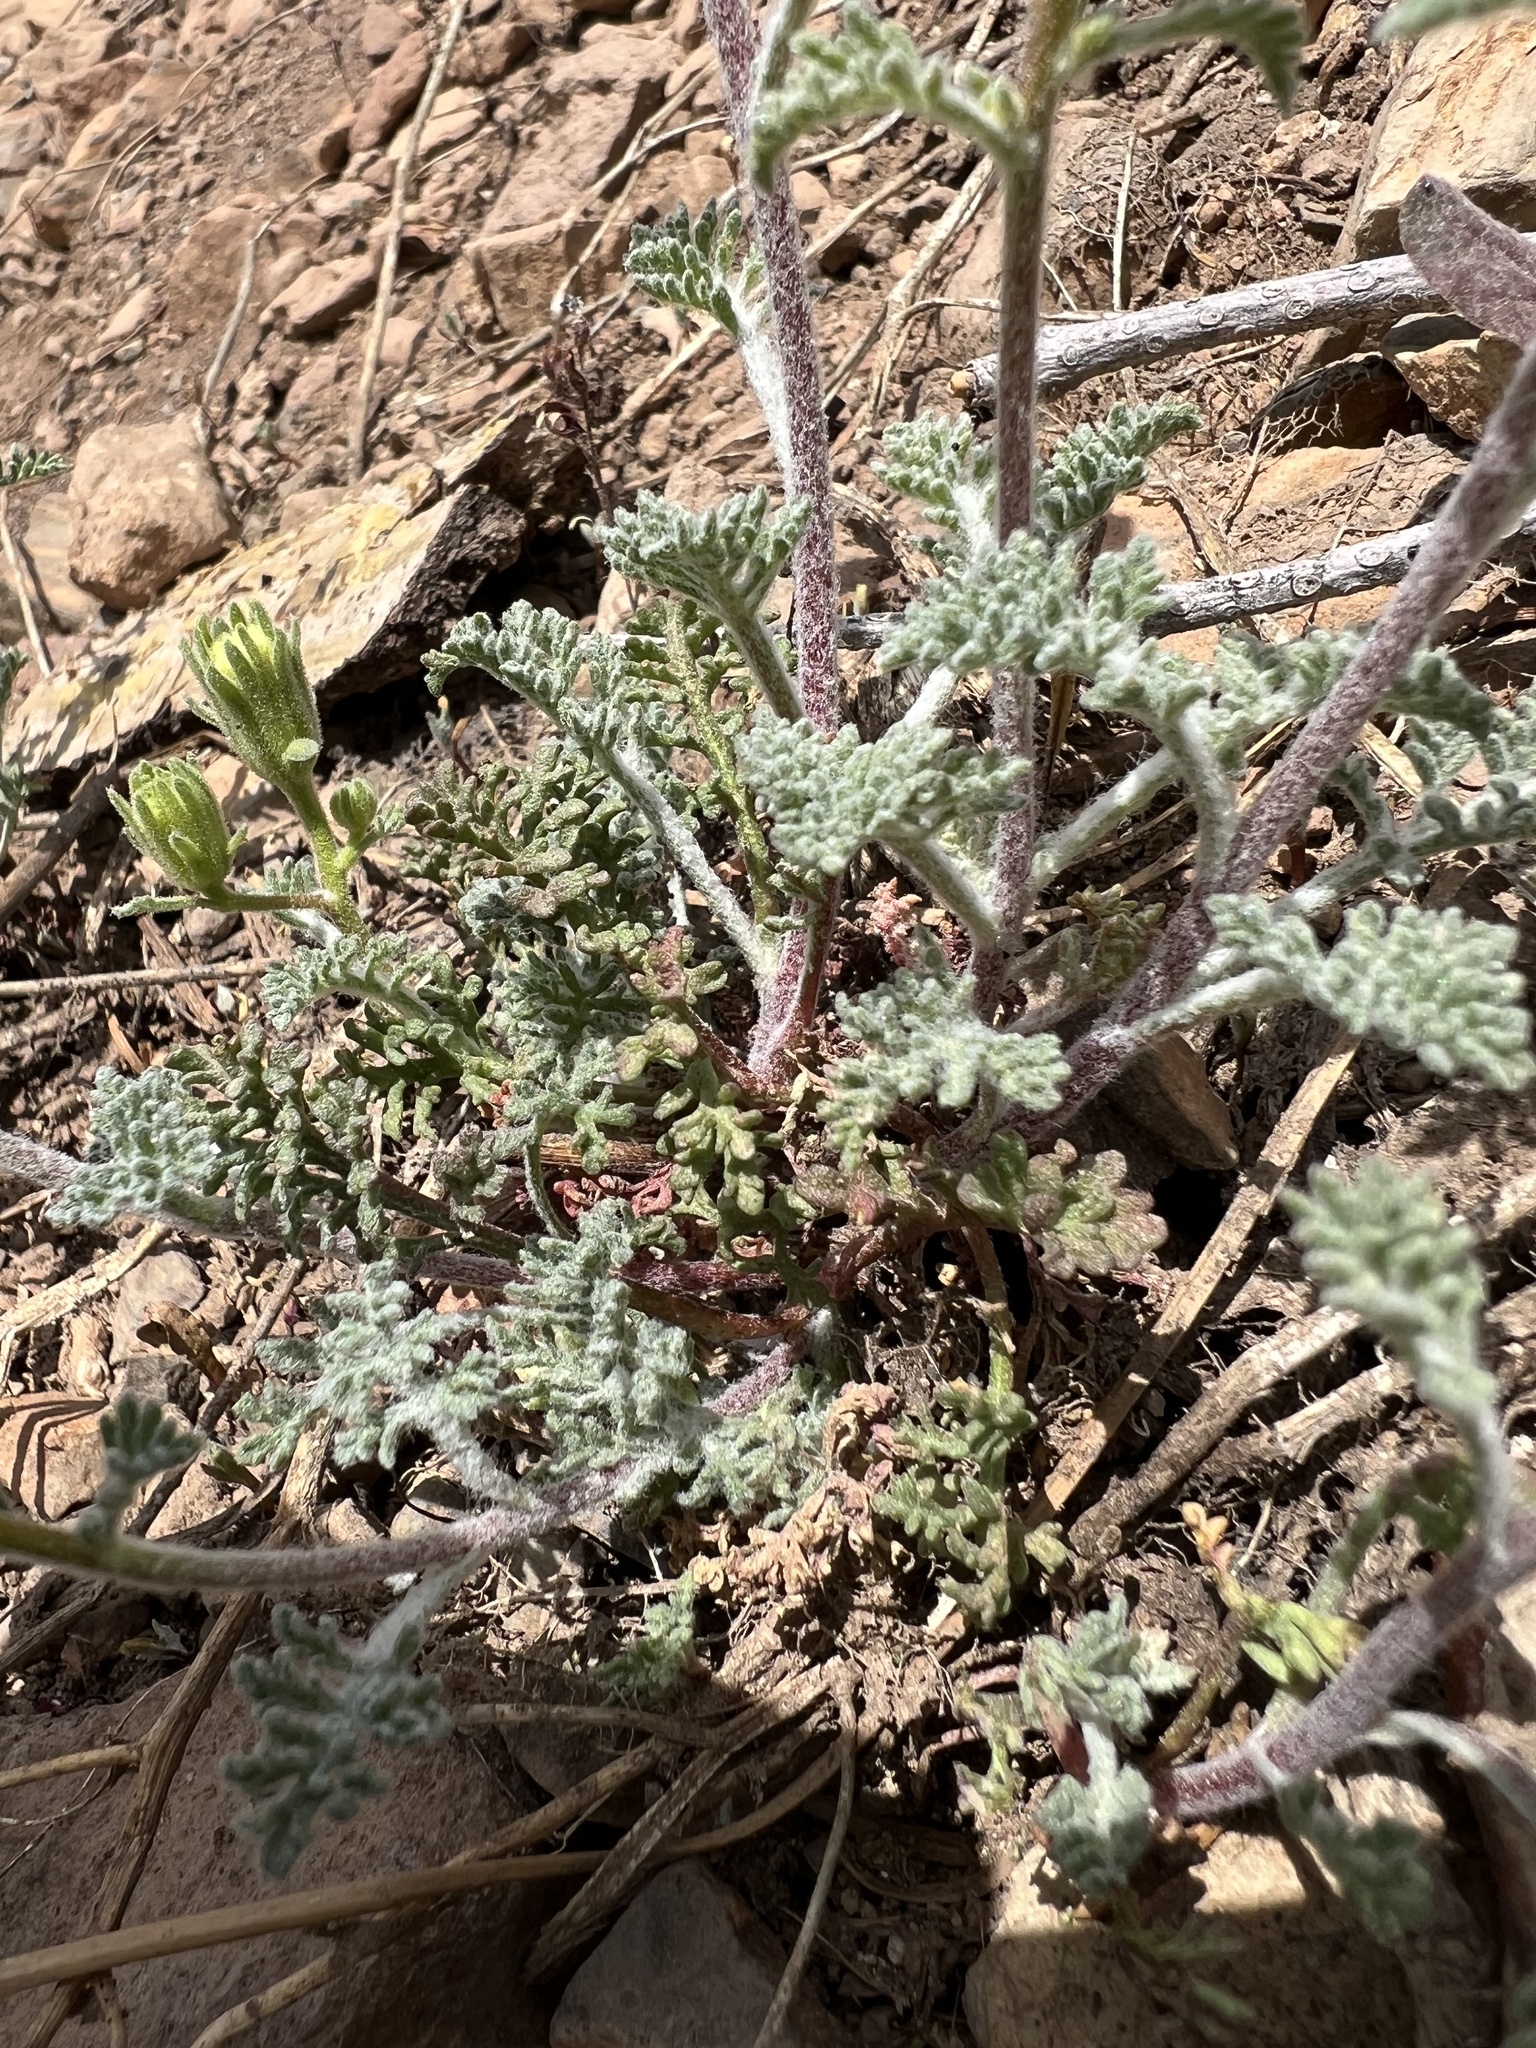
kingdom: Plantae
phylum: Tracheophyta
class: Magnoliopsida
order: Asterales
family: Asteraceae
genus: Chaenactis
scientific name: Chaenactis douglasii
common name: Hoary pincushion
